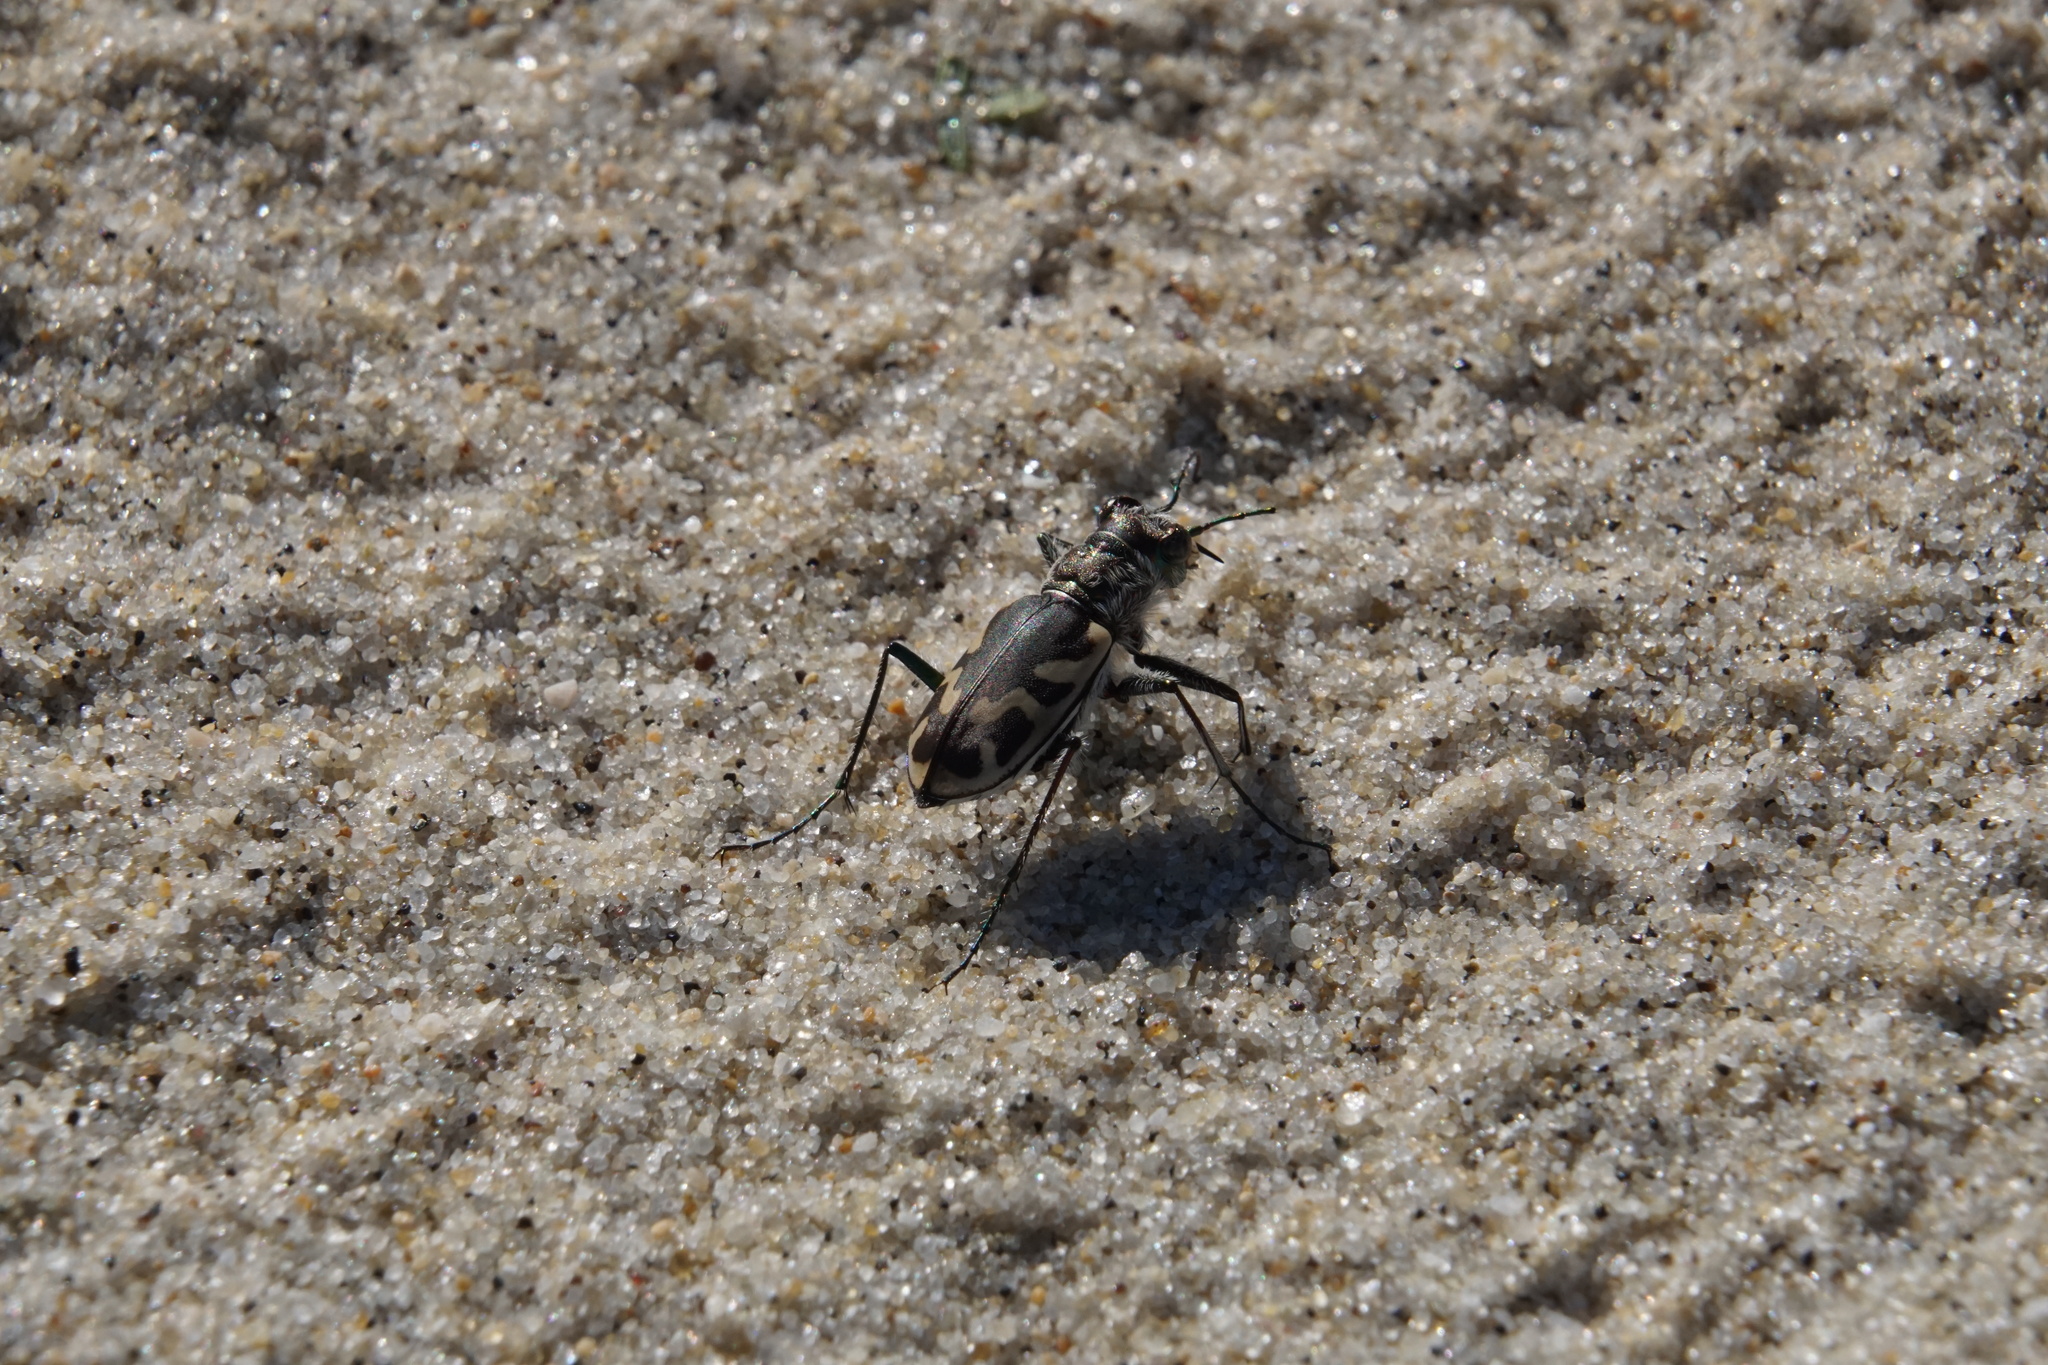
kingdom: Animalia
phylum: Arthropoda
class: Insecta
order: Coleoptera
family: Carabidae
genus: Cicindela
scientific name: Cicindela formosa
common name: Big sand tiger beetle
